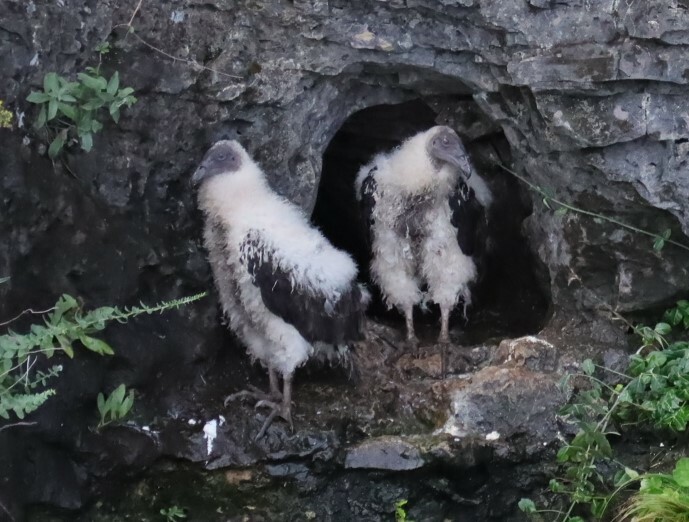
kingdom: Animalia
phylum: Chordata
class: Aves
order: Accipitriformes
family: Cathartidae
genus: Cathartes
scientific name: Cathartes aura
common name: Turkey vulture
